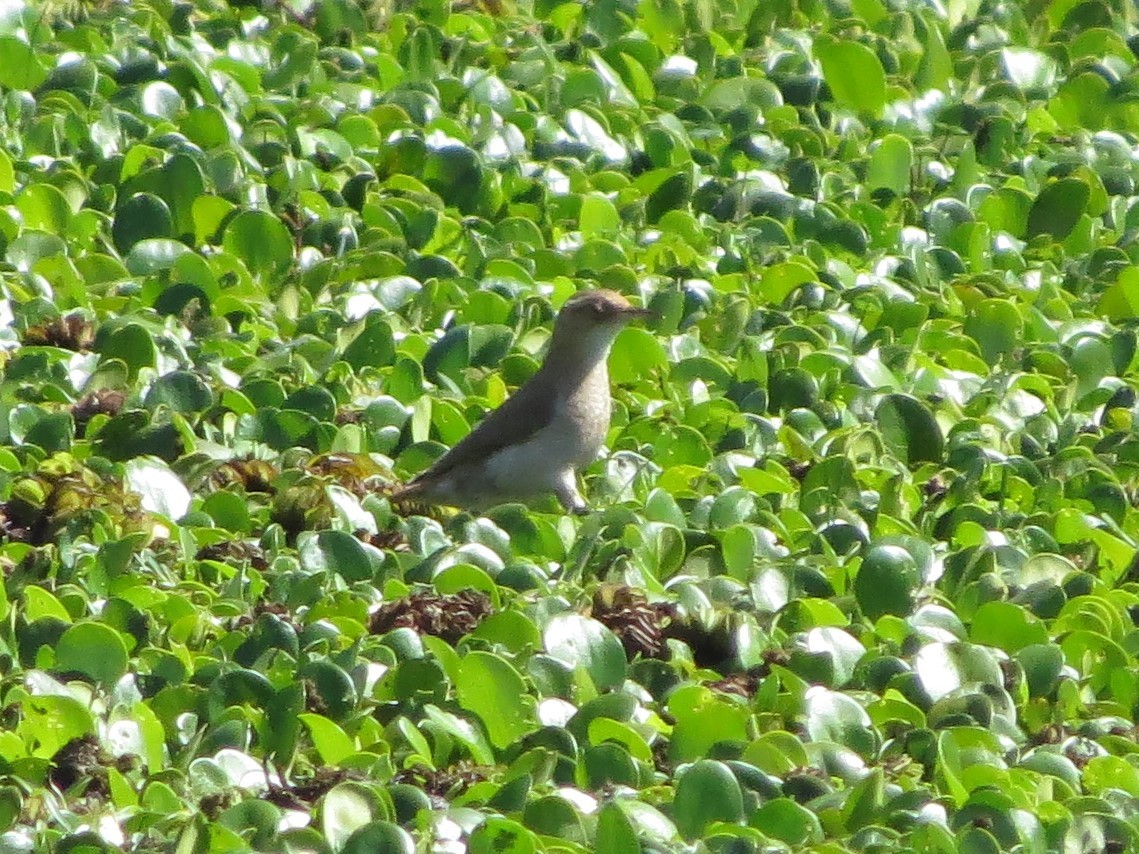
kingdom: Animalia
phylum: Chordata
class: Aves
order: Passeriformes
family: Furnariidae
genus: Furnarius
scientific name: Furnarius rufus
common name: Rufous hornero
